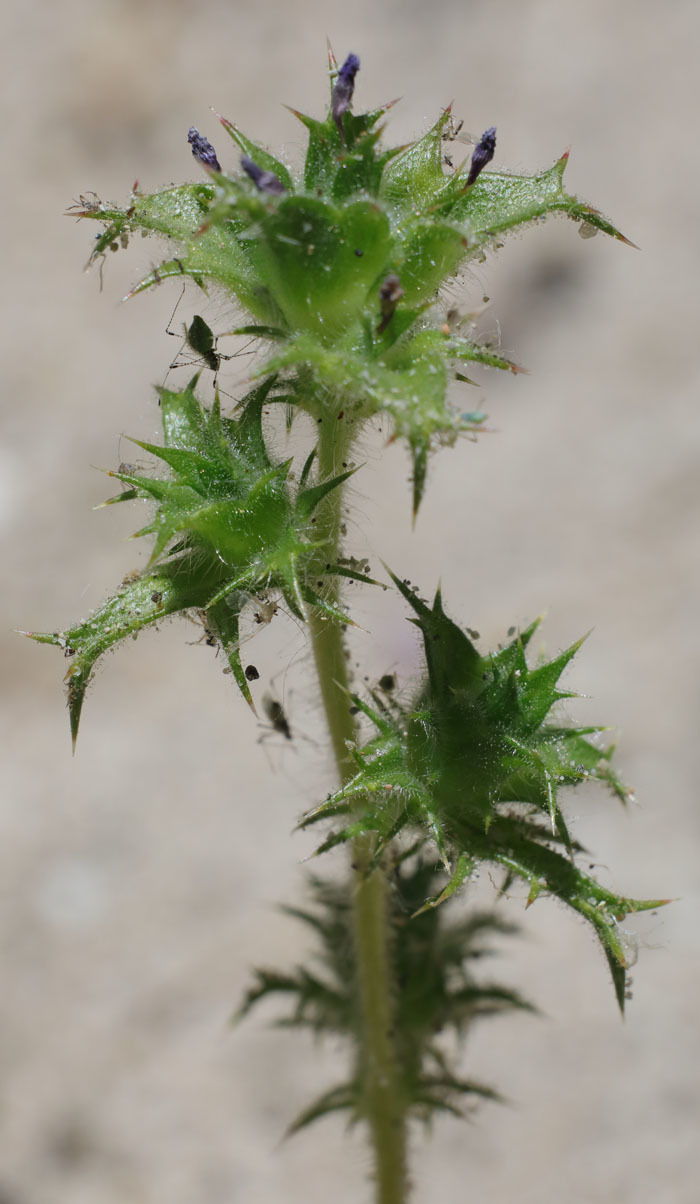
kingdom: Plantae
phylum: Tracheophyta
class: Magnoliopsida
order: Ericales
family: Polemoniaceae
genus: Navarretia
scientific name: Navarretia atractyloides
